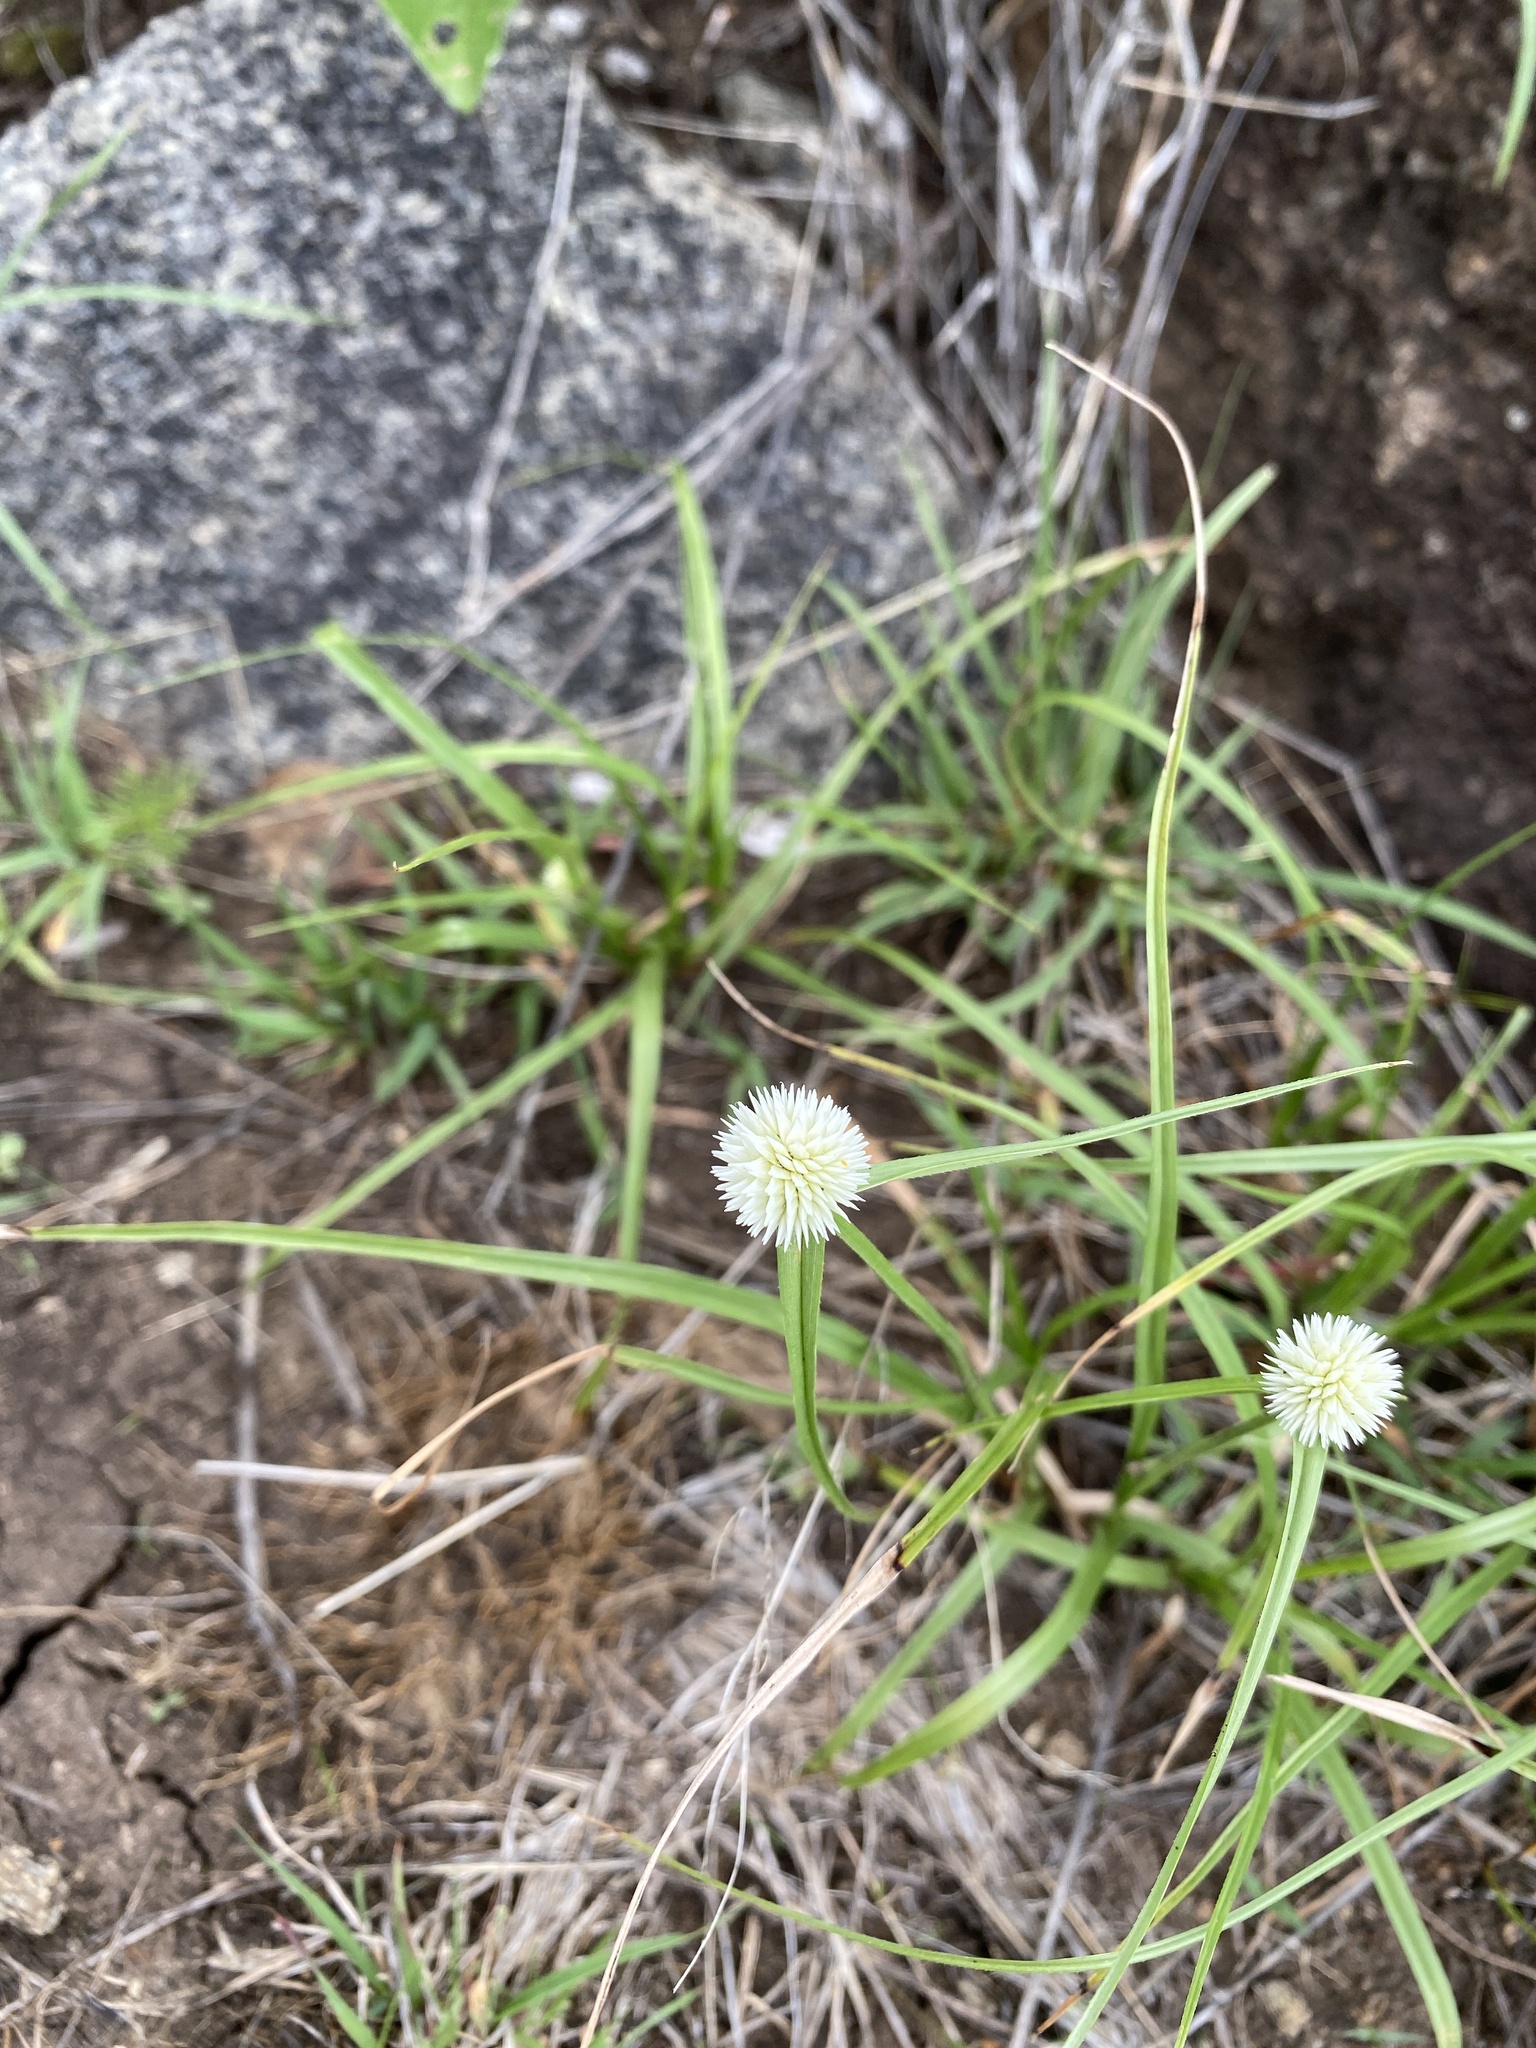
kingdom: Plantae
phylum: Tracheophyta
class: Liliopsida
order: Poales
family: Cyperaceae
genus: Cyperus
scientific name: Cyperus alatus
